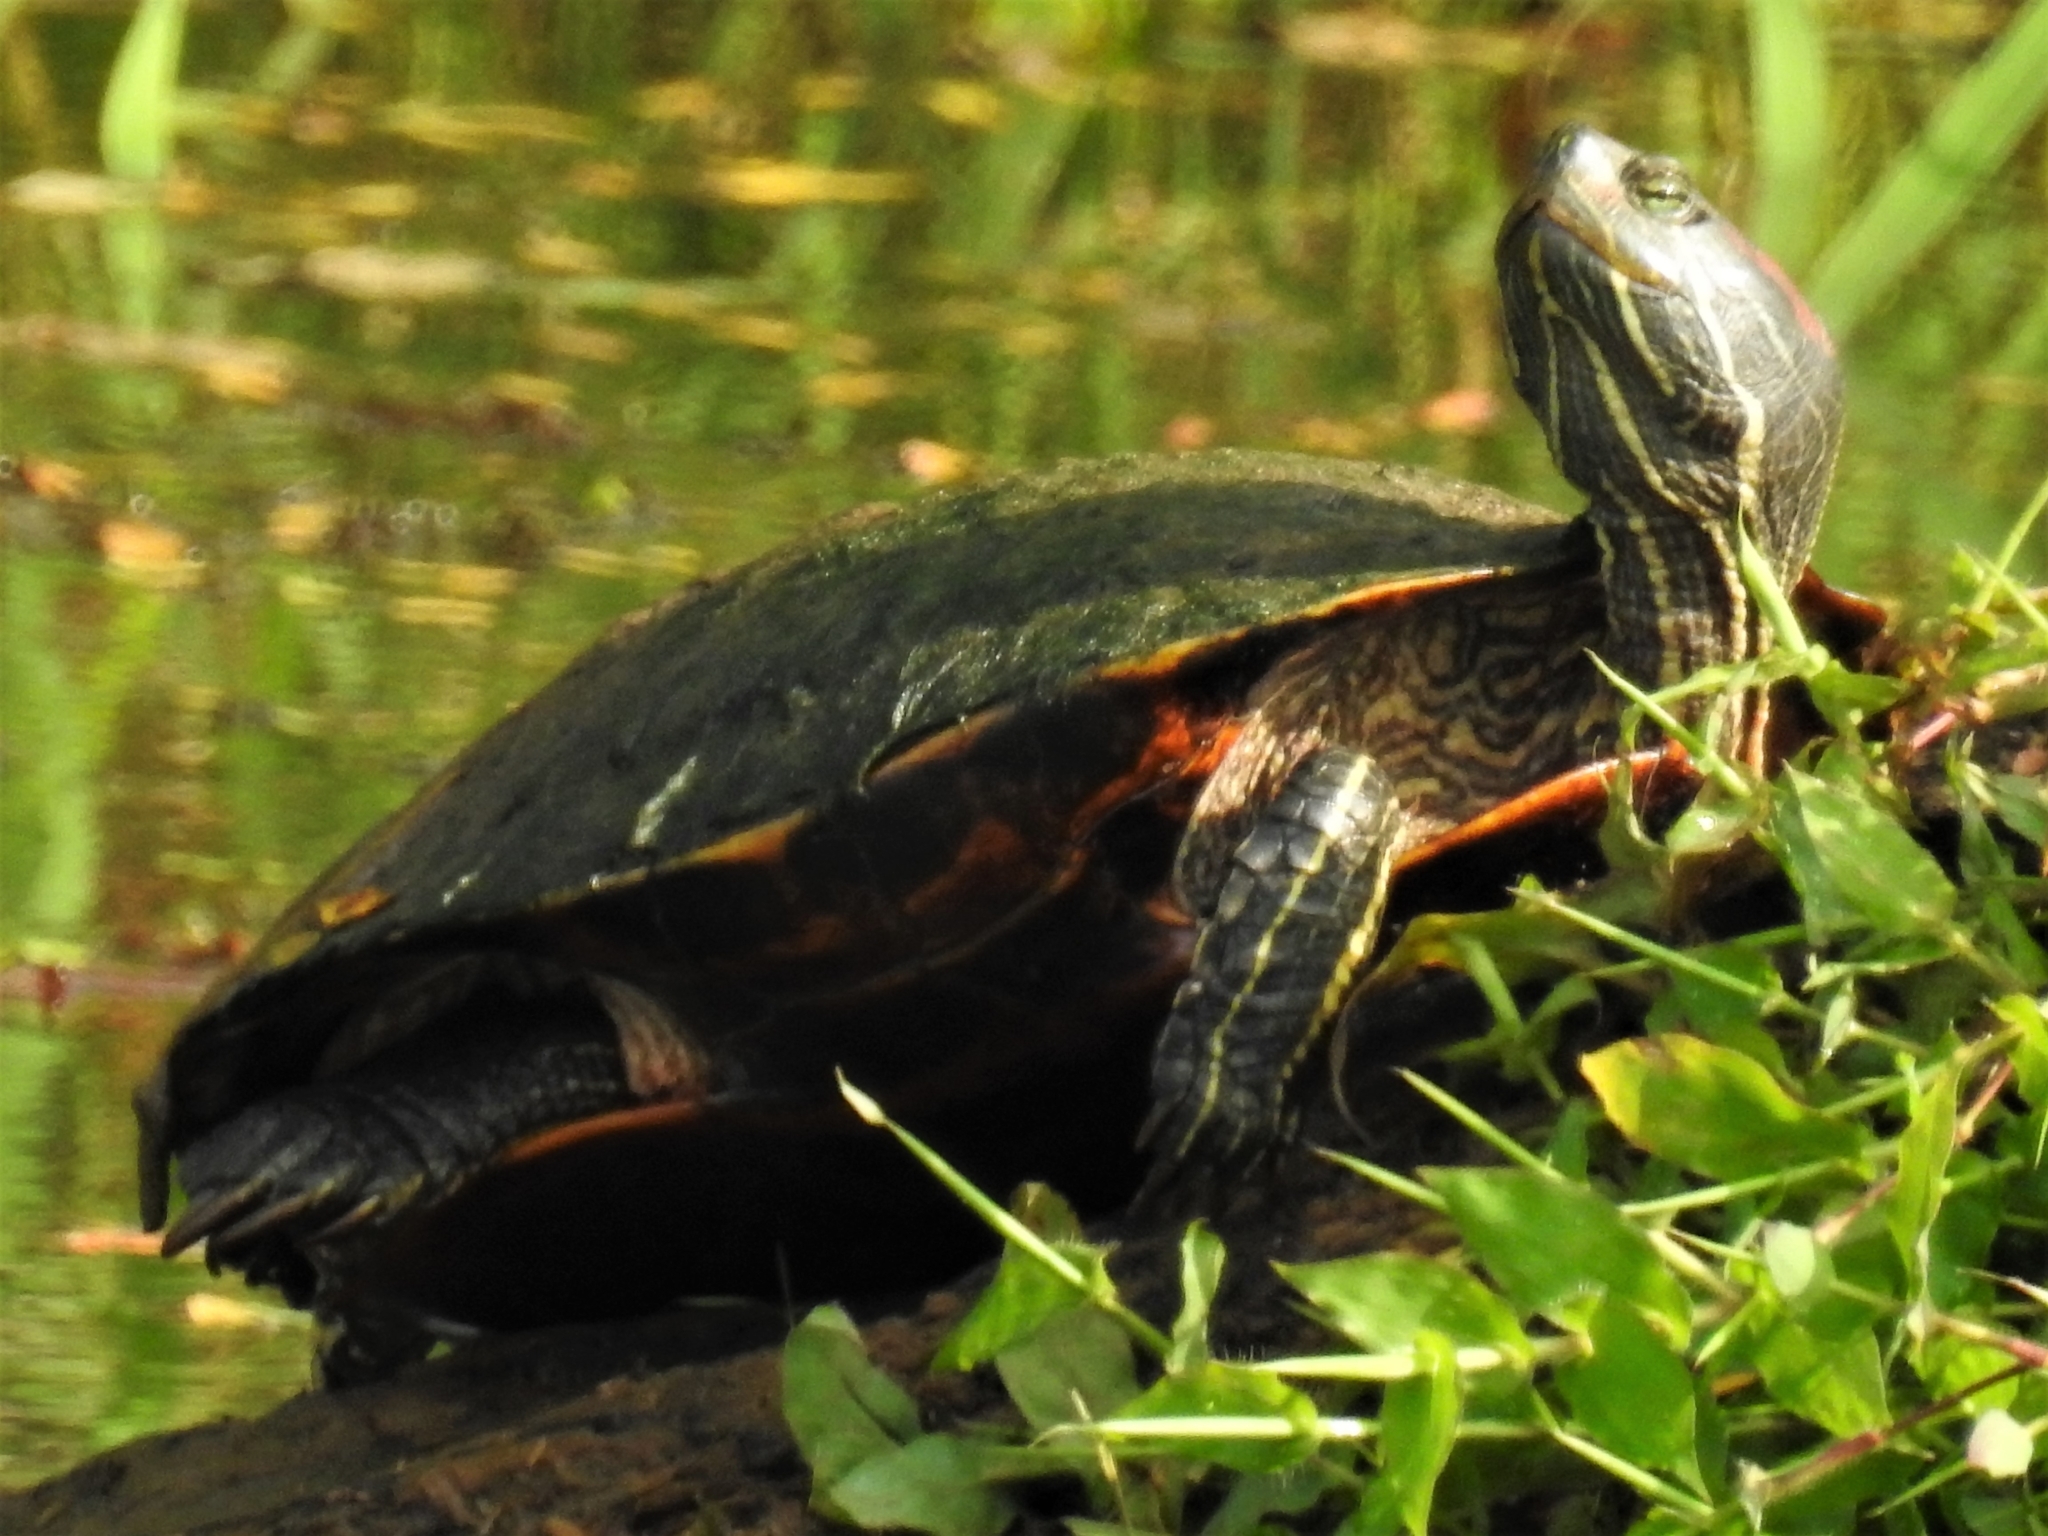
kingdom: Animalia
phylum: Chordata
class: Testudines
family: Emydidae
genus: Trachemys
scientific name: Trachemys scripta
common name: Slider
